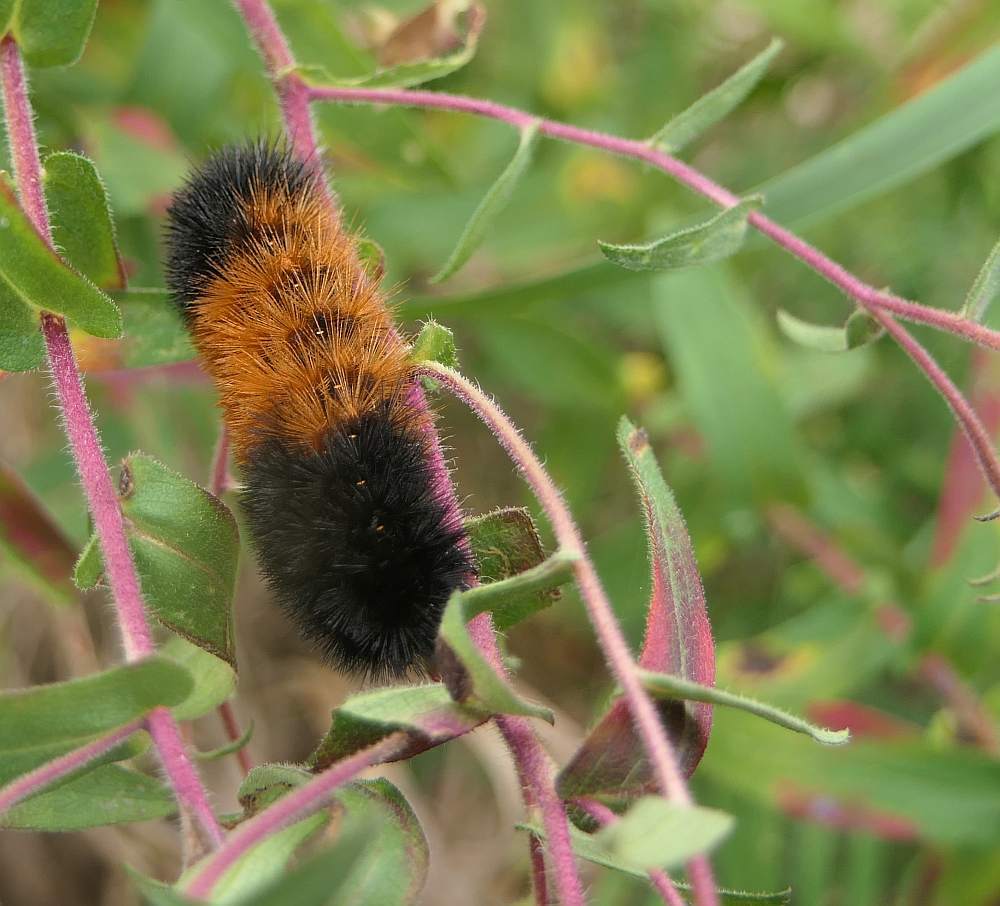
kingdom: Animalia
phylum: Arthropoda
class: Insecta
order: Lepidoptera
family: Erebidae
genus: Pyrrharctia
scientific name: Pyrrharctia isabella
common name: Isabella tiger moth
